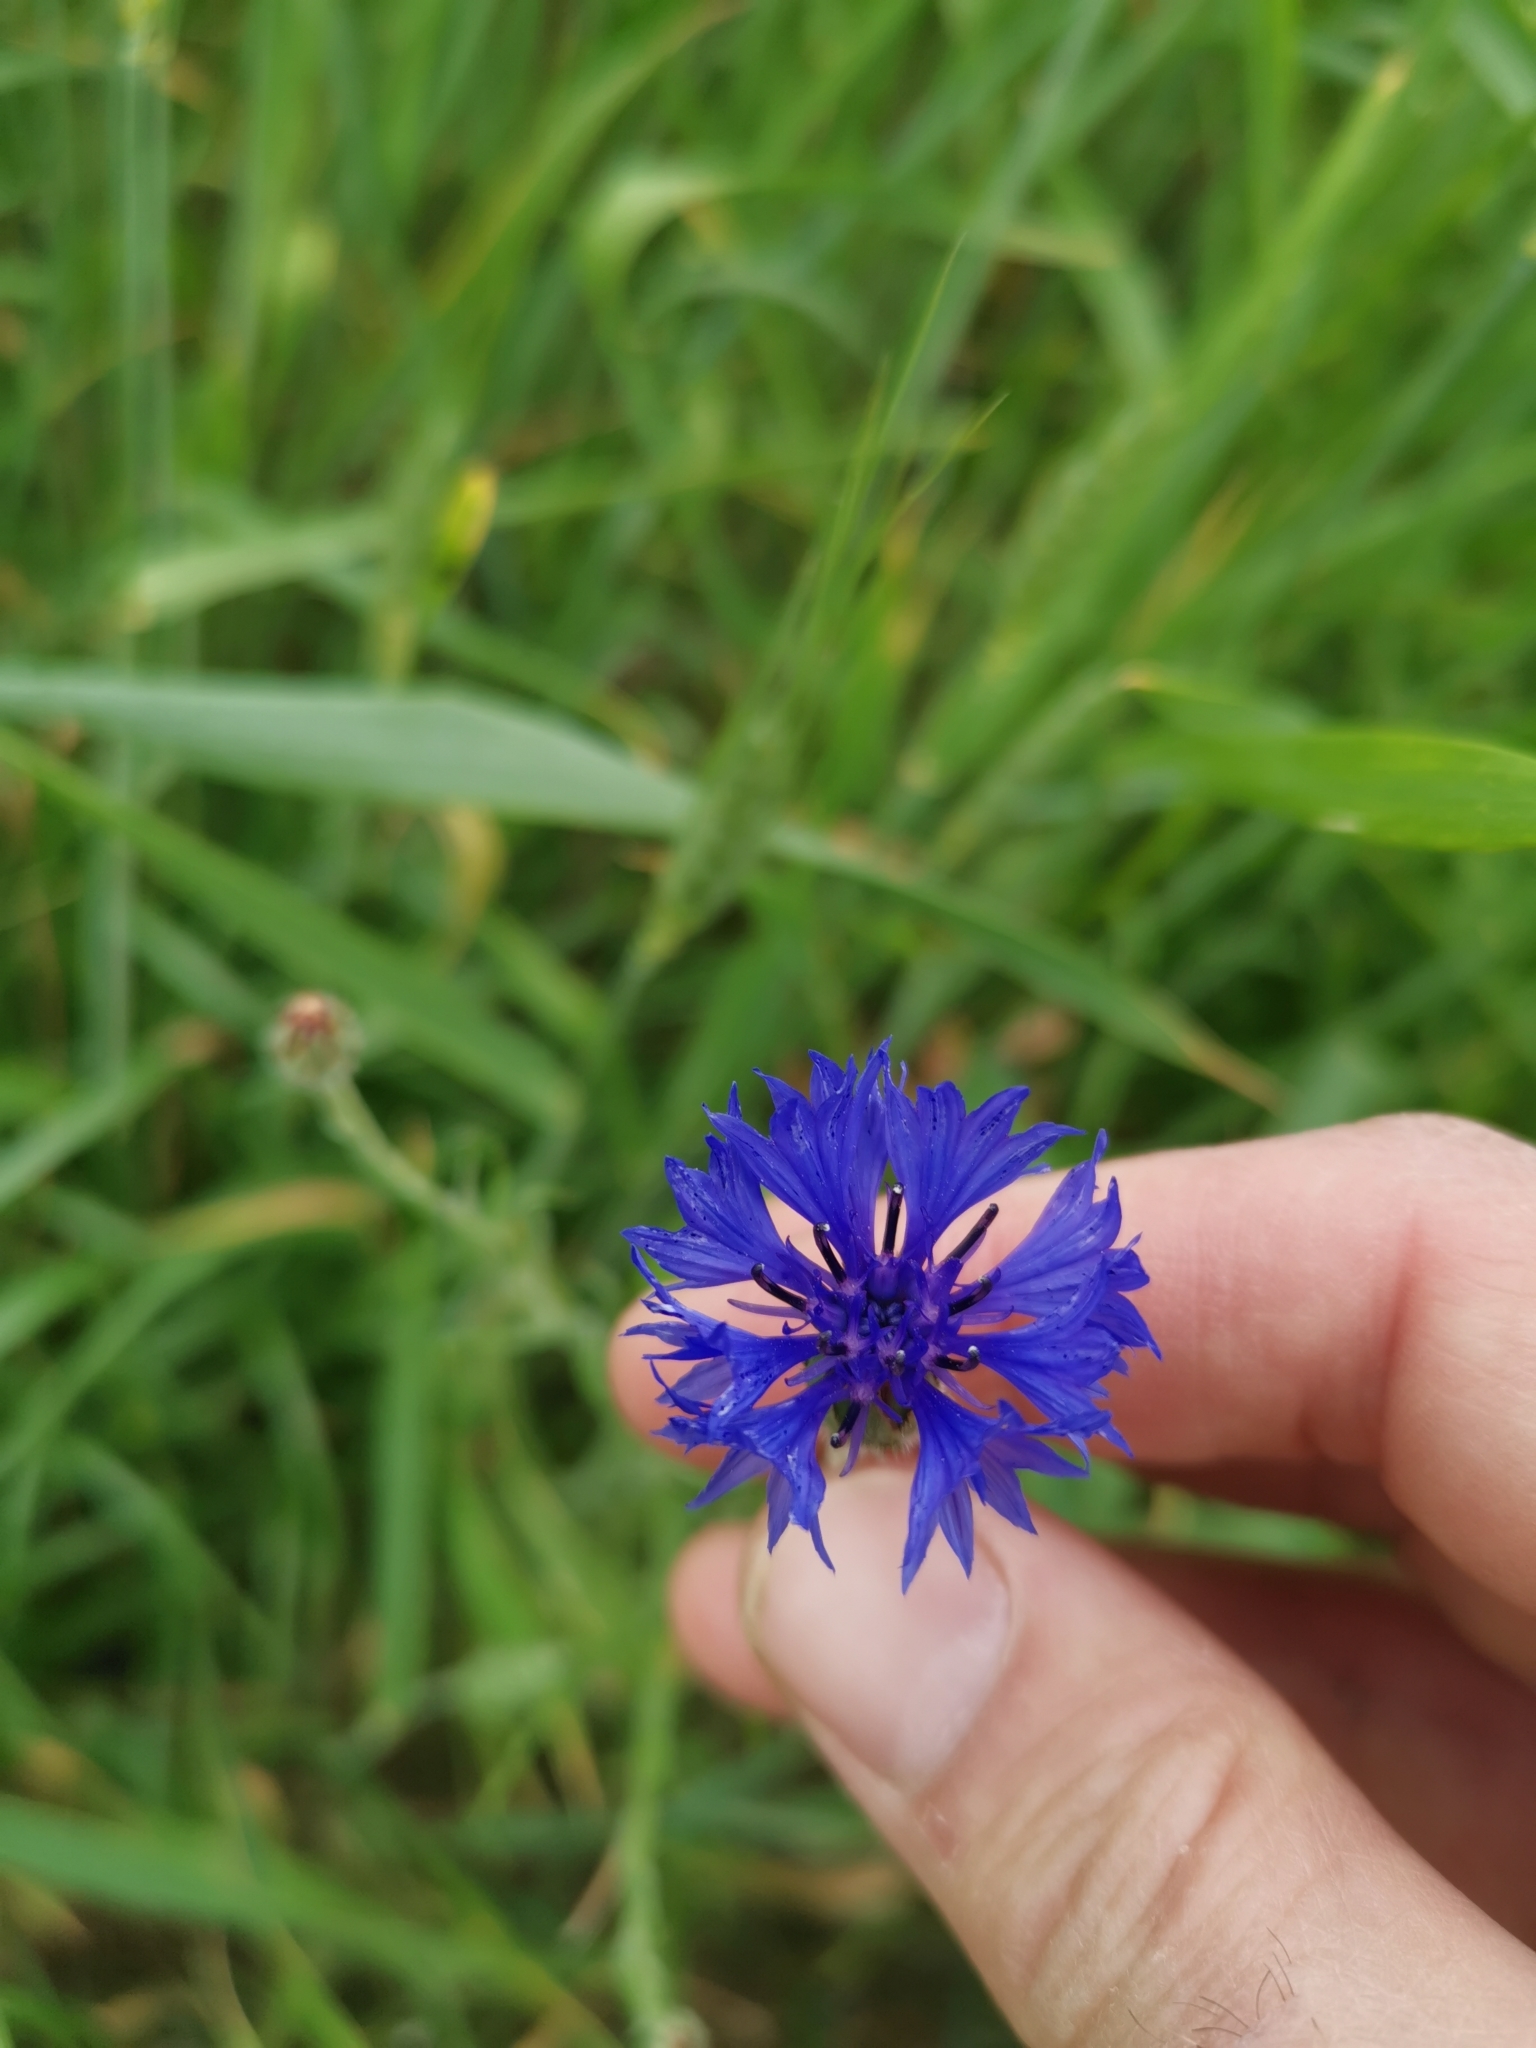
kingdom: Plantae
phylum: Tracheophyta
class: Magnoliopsida
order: Asterales
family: Asteraceae
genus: Centaurea
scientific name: Centaurea cyanus
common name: Cornflower
